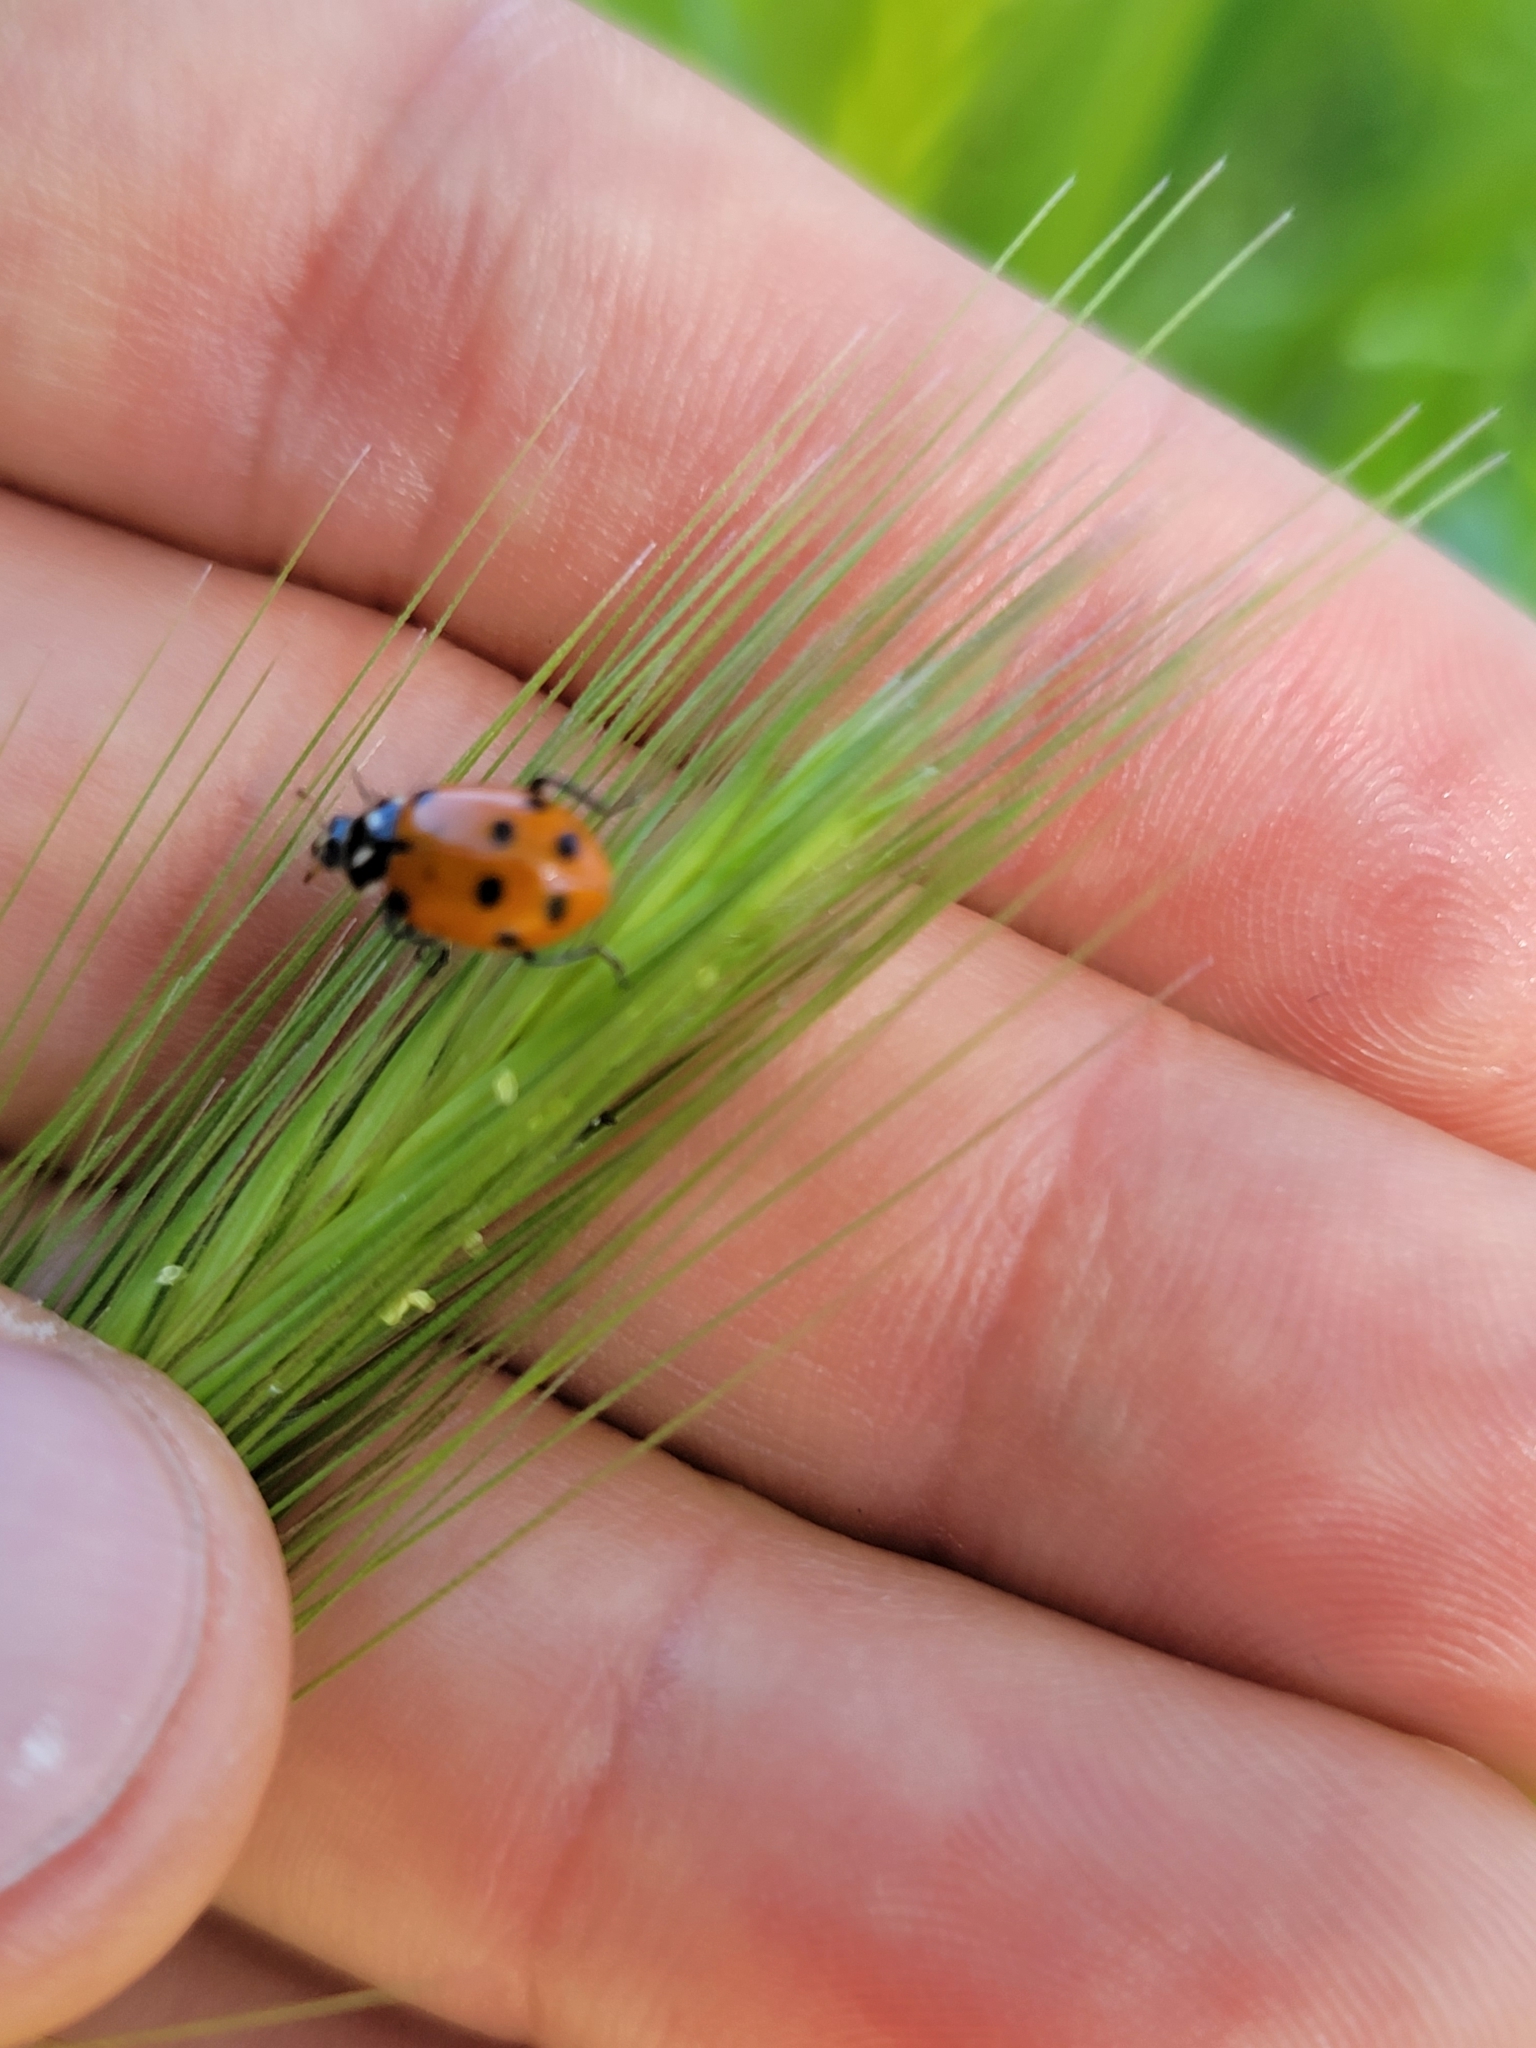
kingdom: Animalia
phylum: Arthropoda
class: Insecta
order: Coleoptera
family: Coccinellidae
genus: Hippodamia
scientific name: Hippodamia convergens
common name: Convergent lady beetle
